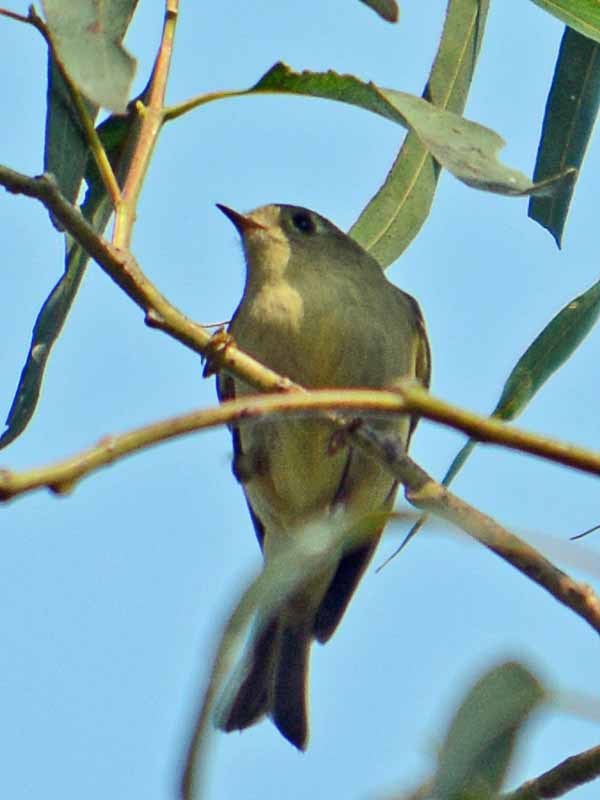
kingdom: Animalia
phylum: Chordata
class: Aves
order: Passeriformes
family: Regulidae
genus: Regulus
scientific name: Regulus calendula
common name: Ruby-crowned kinglet
